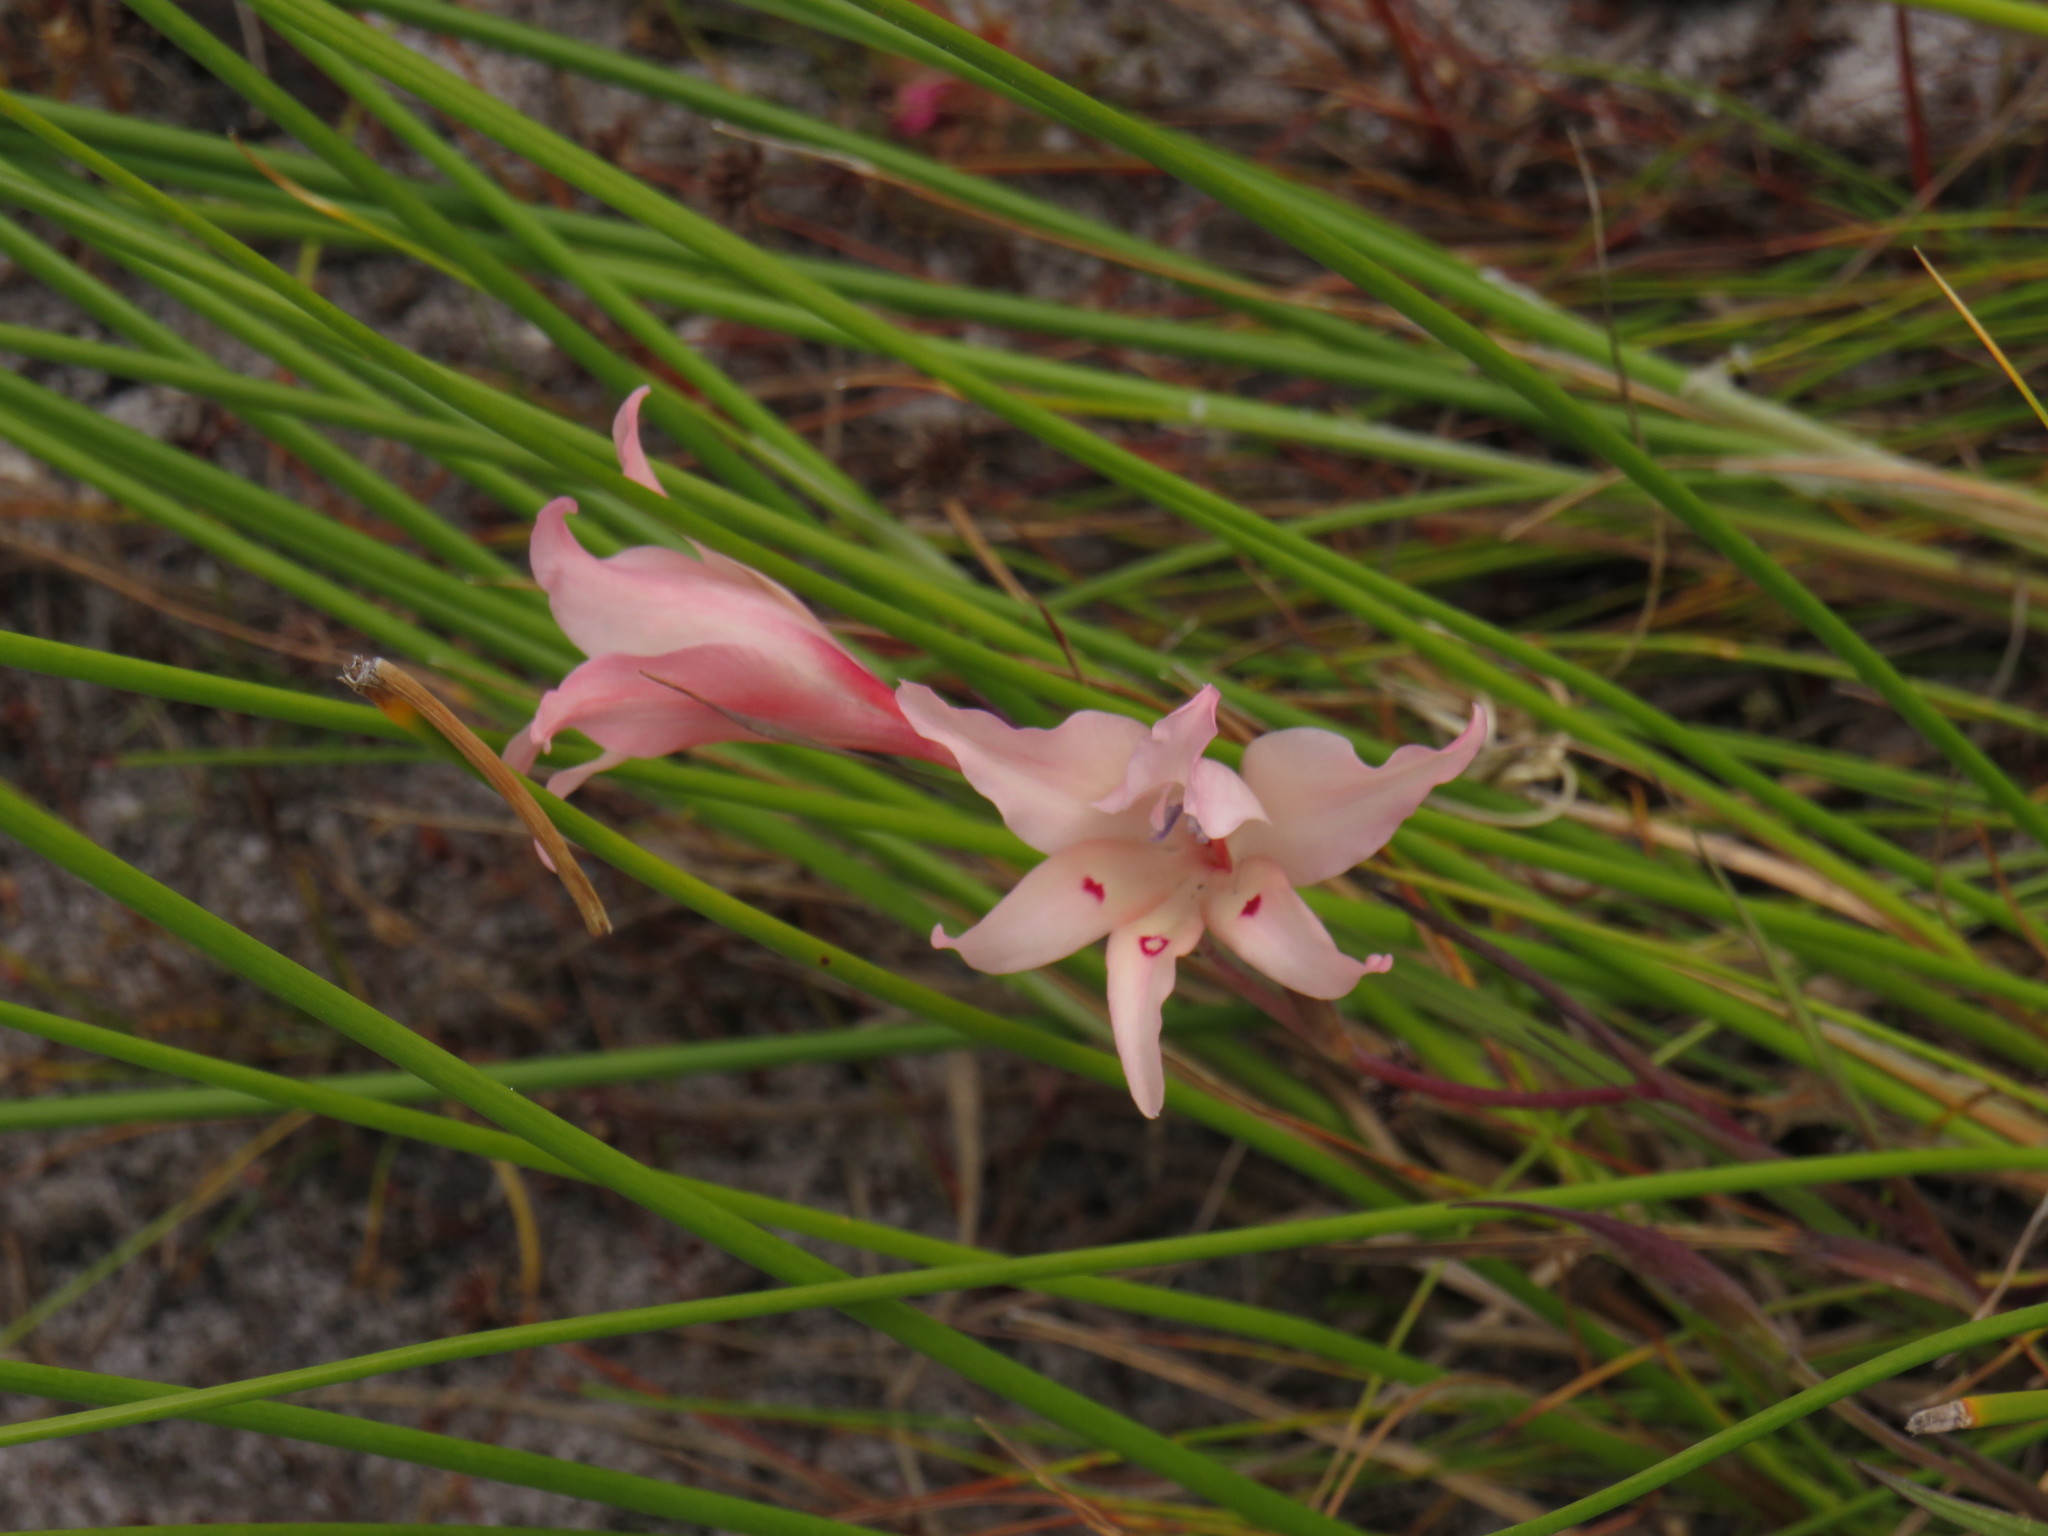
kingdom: Plantae
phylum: Tracheophyta
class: Liliopsida
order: Asparagales
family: Iridaceae
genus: Gladiolus
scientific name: Gladiolus carneus
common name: Painted-lady
